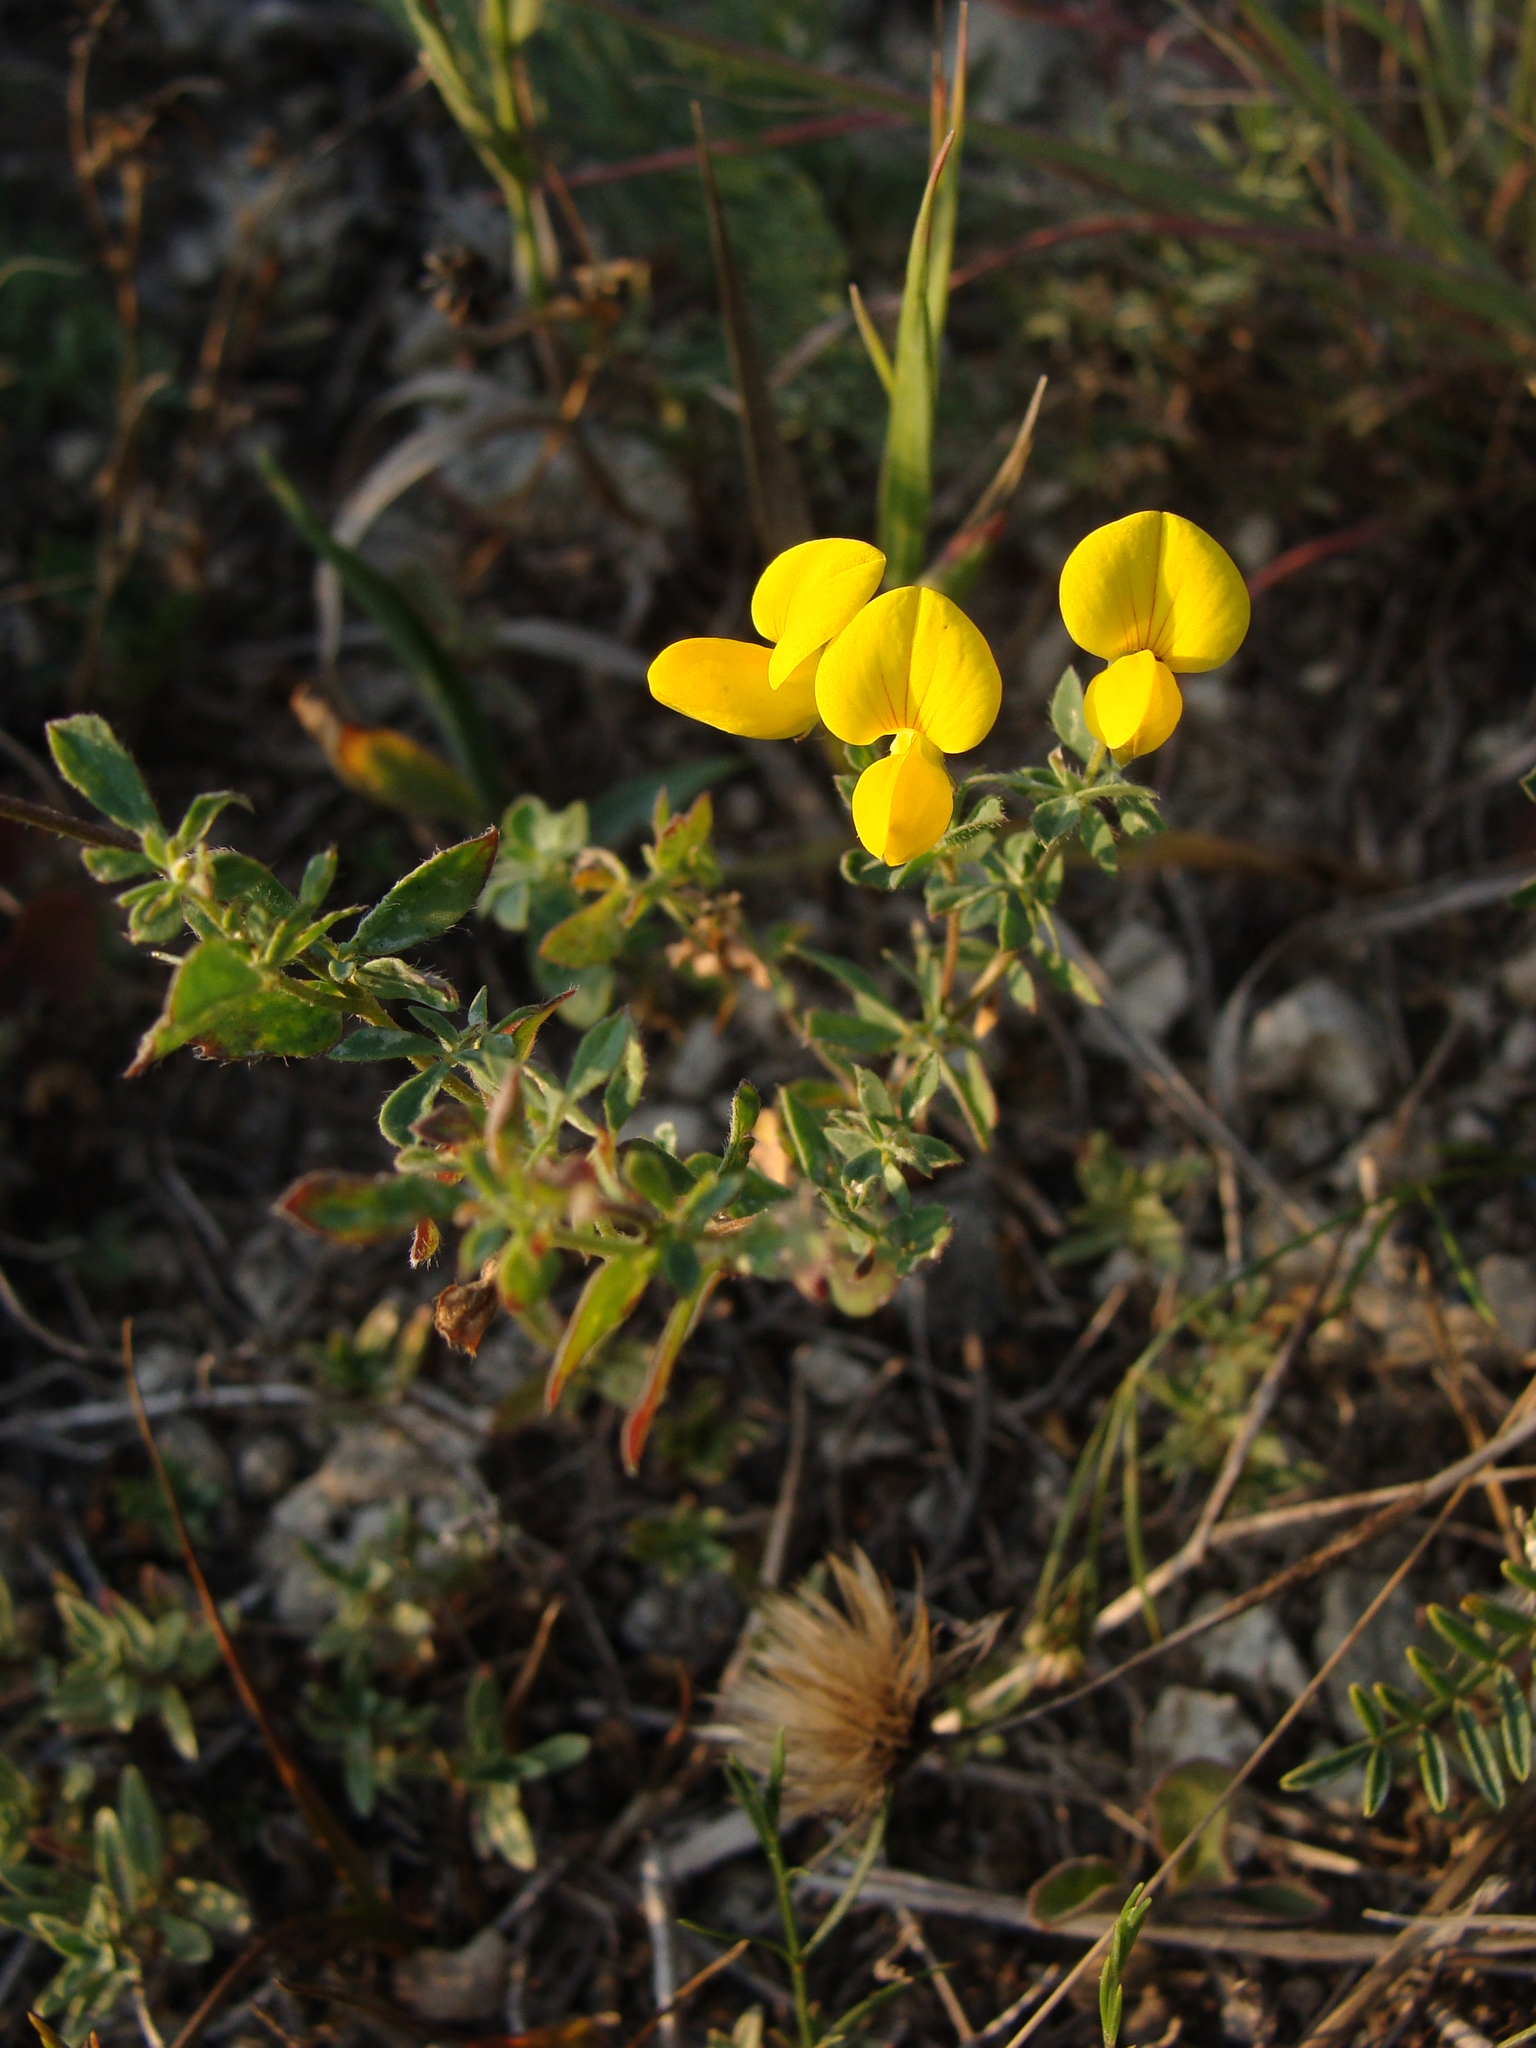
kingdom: Plantae
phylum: Tracheophyta
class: Magnoliopsida
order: Fabales
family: Fabaceae
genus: Lotus
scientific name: Lotus corniculatus
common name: Common bird's-foot-trefoil
